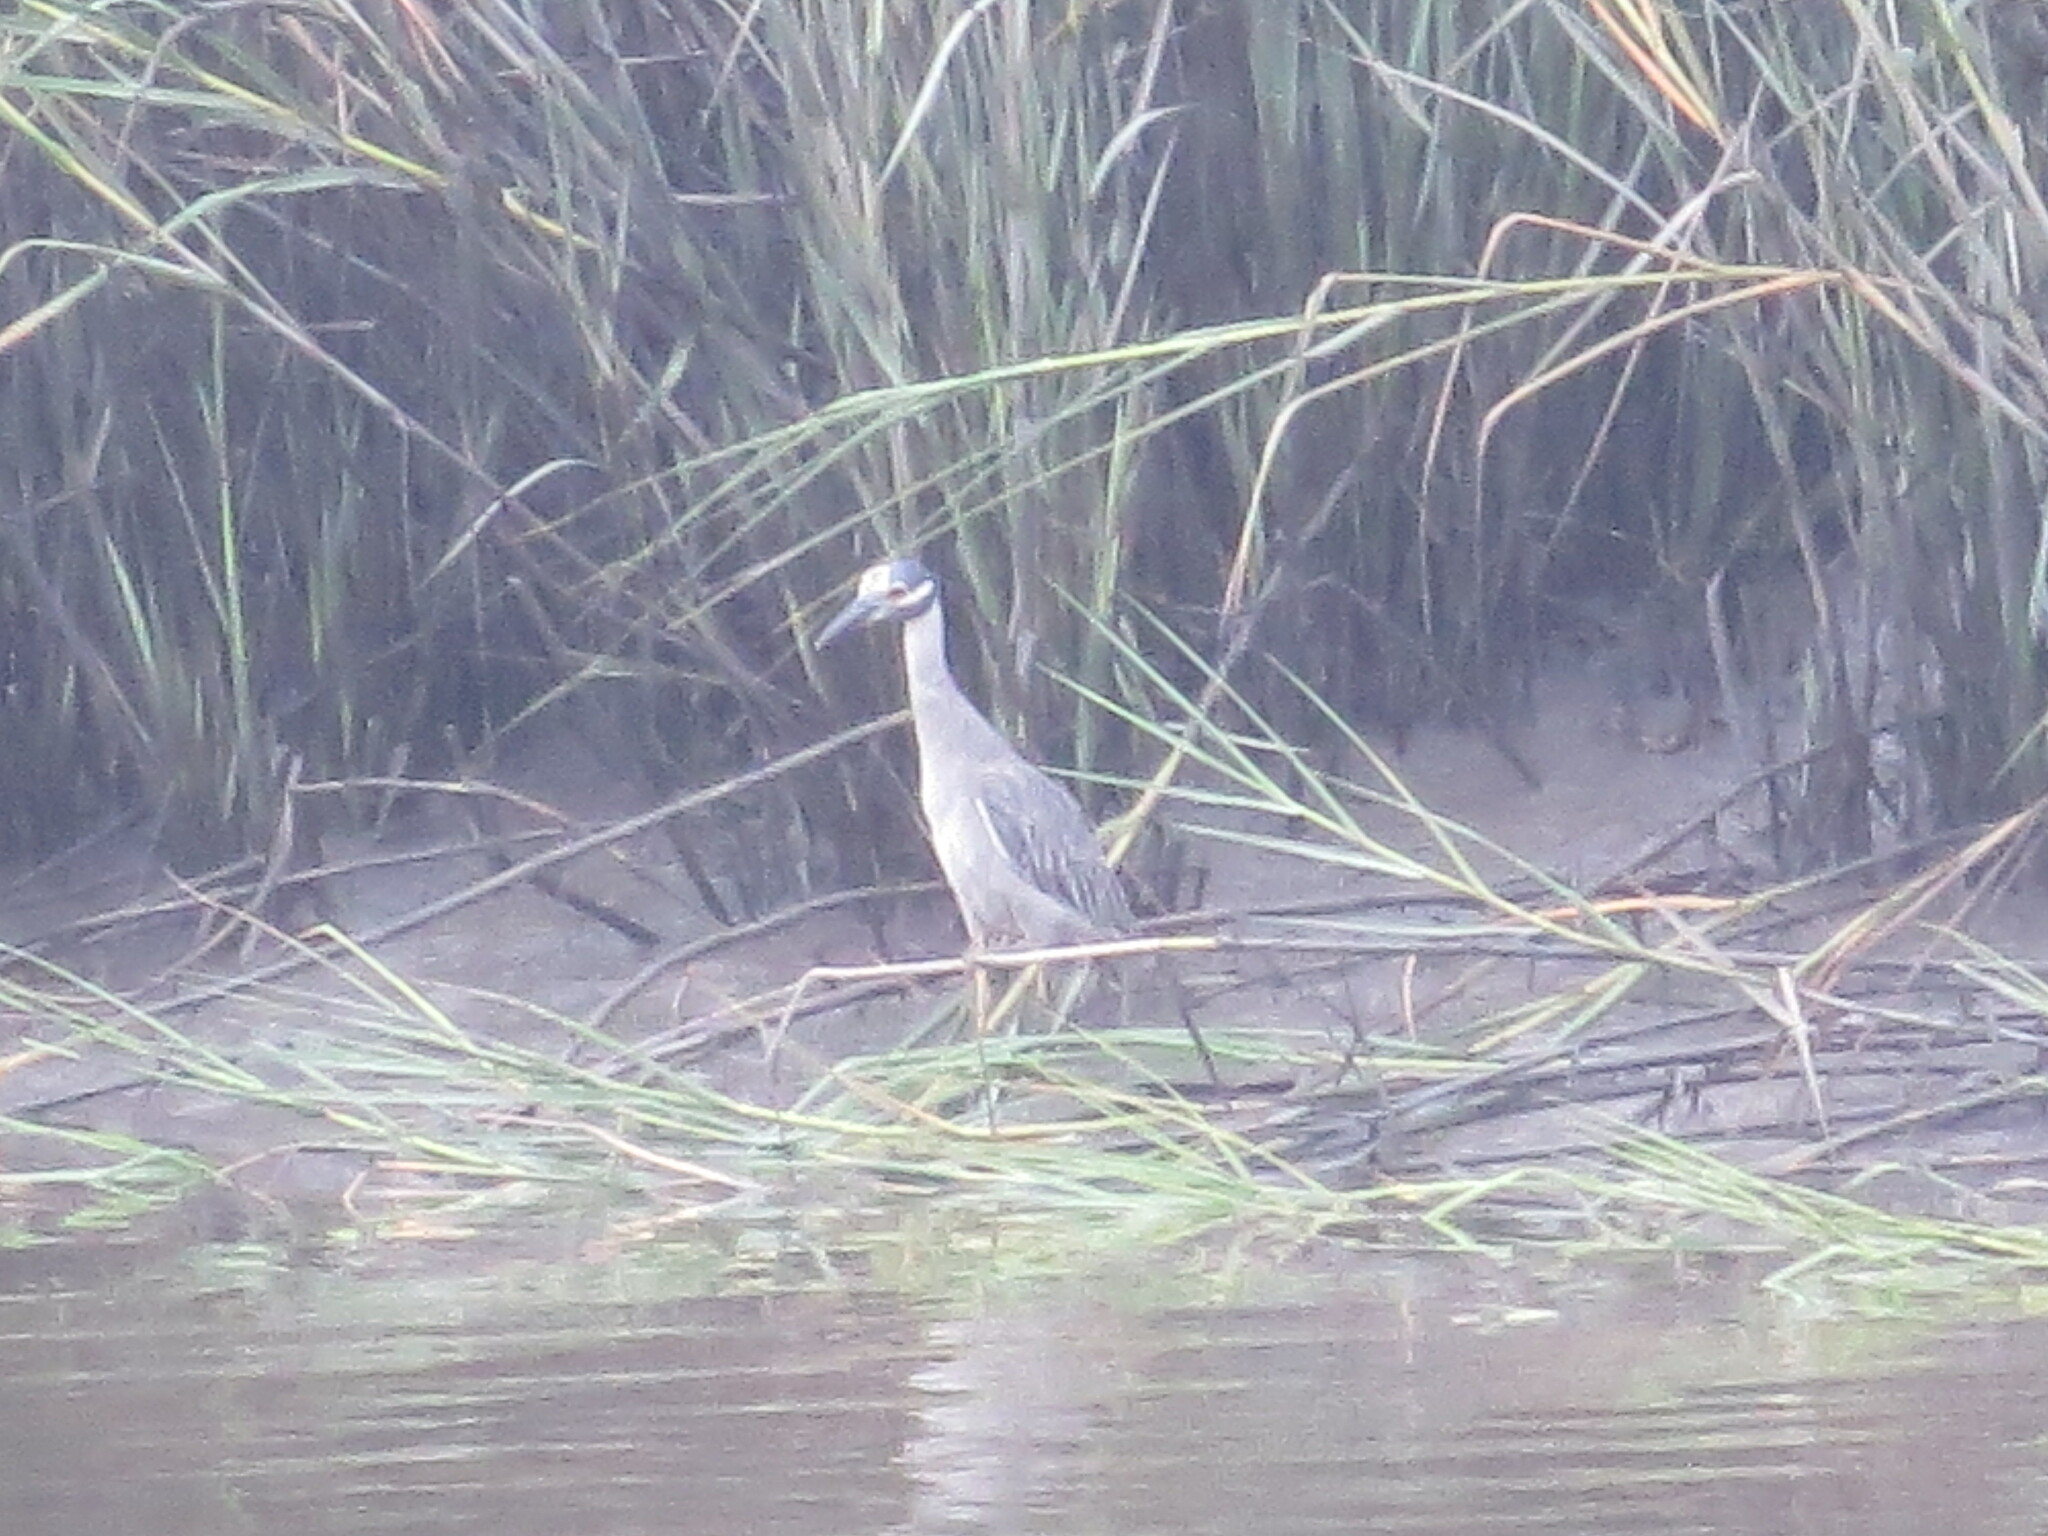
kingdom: Animalia
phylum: Chordata
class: Aves
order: Pelecaniformes
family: Ardeidae
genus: Nyctanassa
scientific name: Nyctanassa violacea
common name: Yellow-crowned night heron
